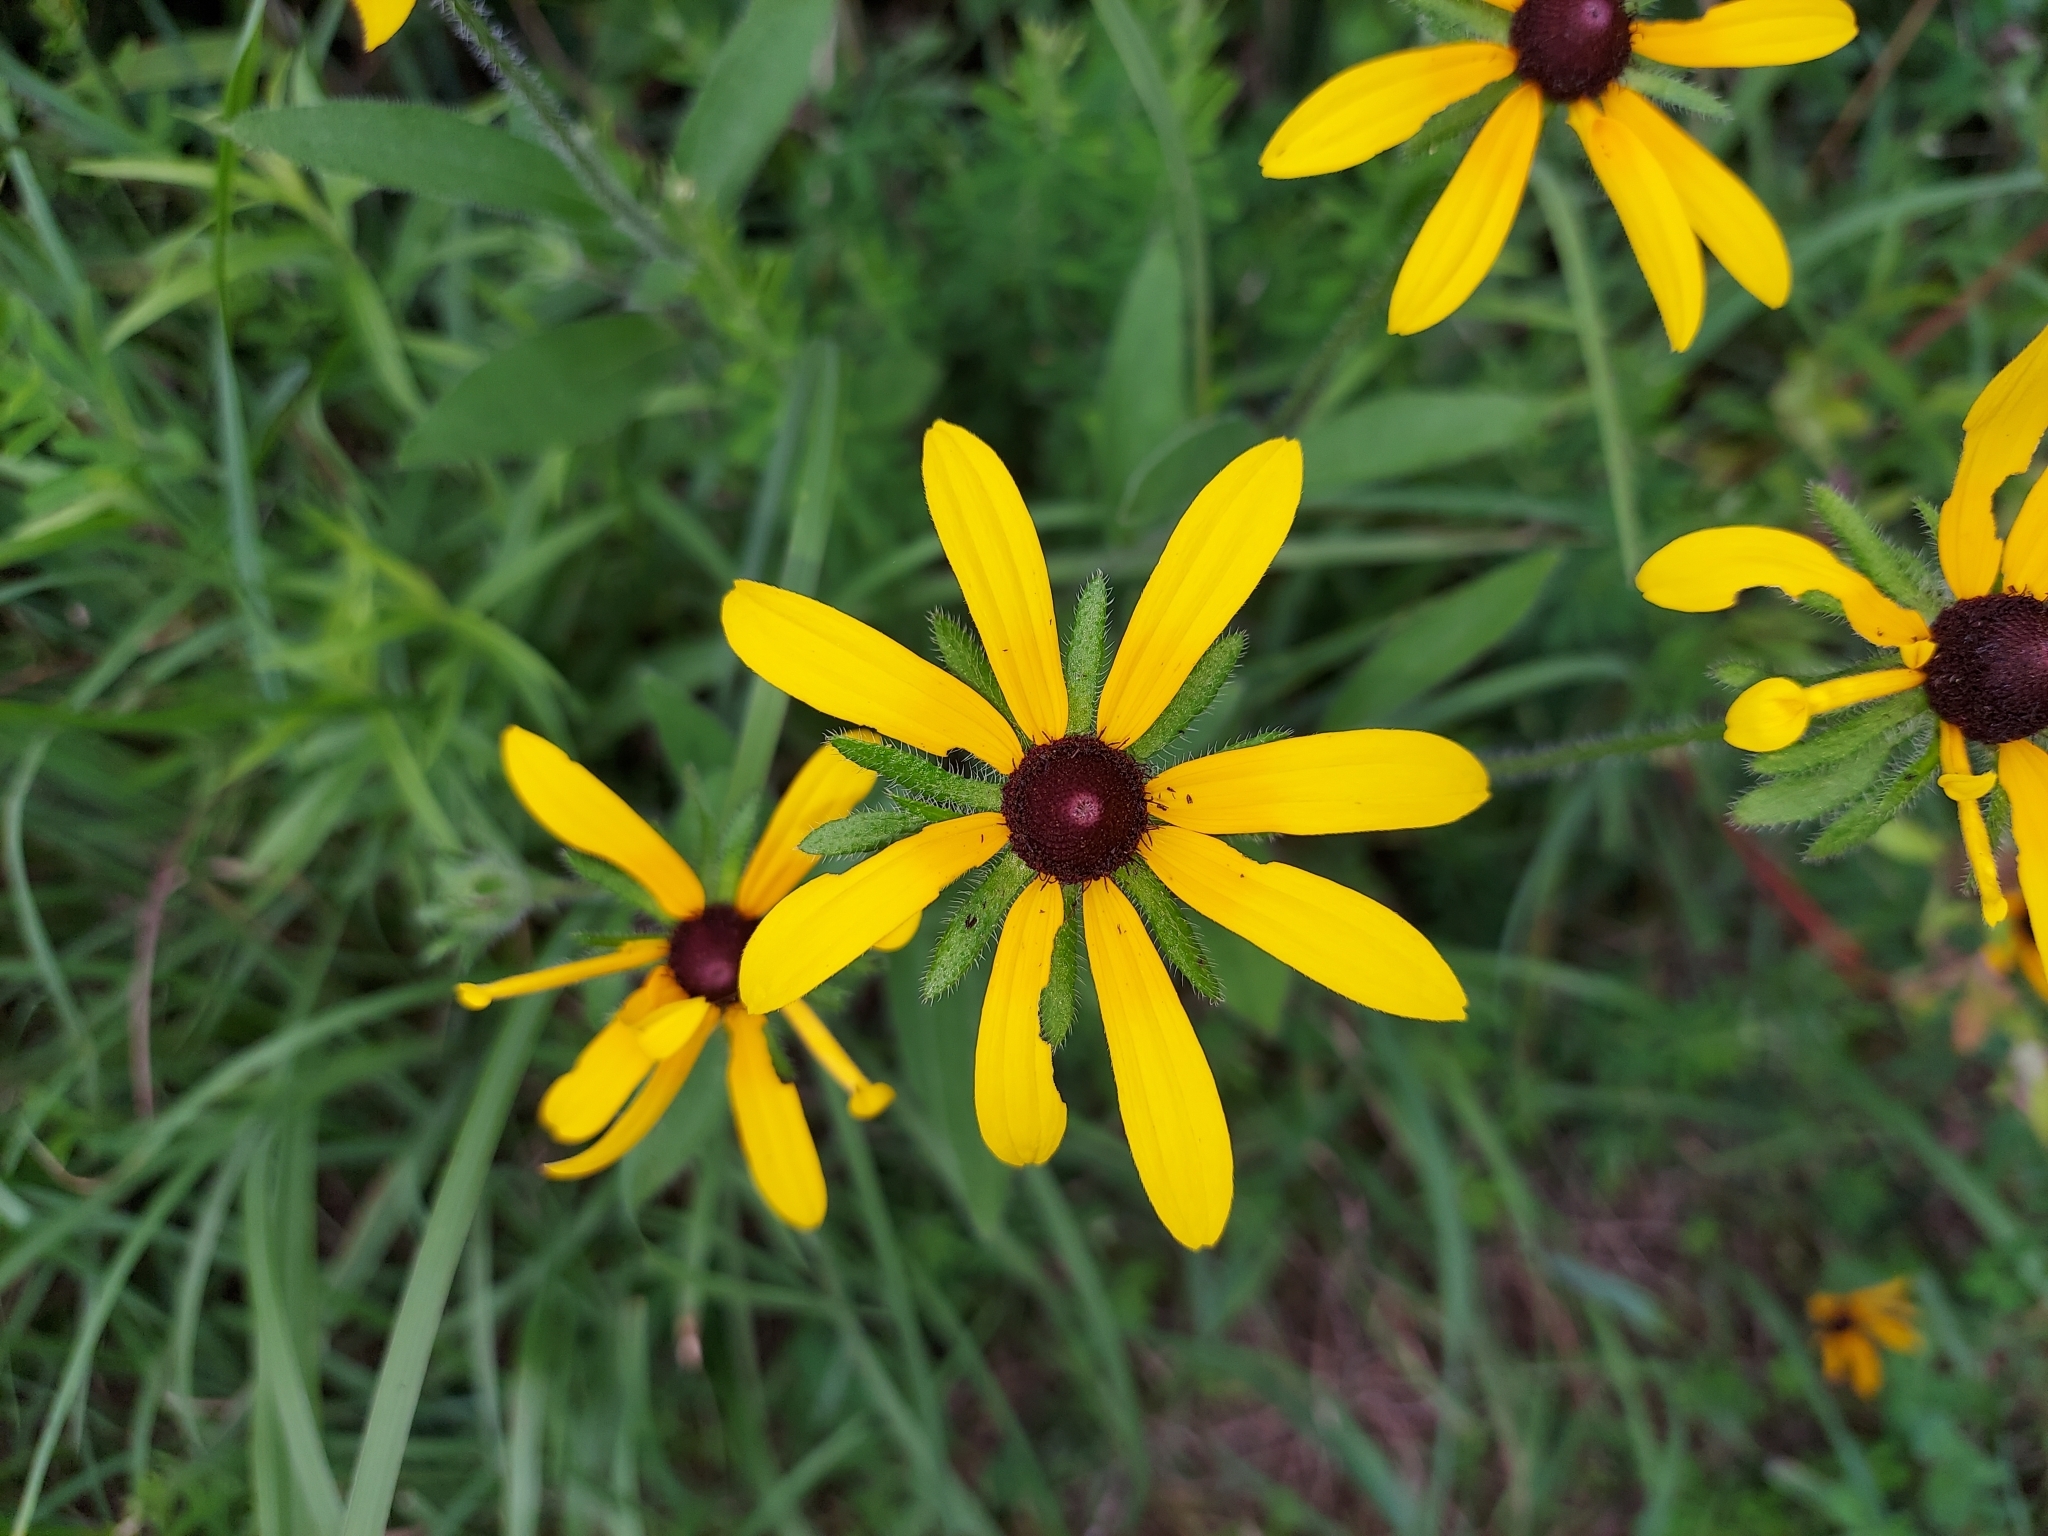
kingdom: Plantae
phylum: Tracheophyta
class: Magnoliopsida
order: Asterales
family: Asteraceae
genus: Rudbeckia
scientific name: Rudbeckia hirta
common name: Black-eyed-susan
